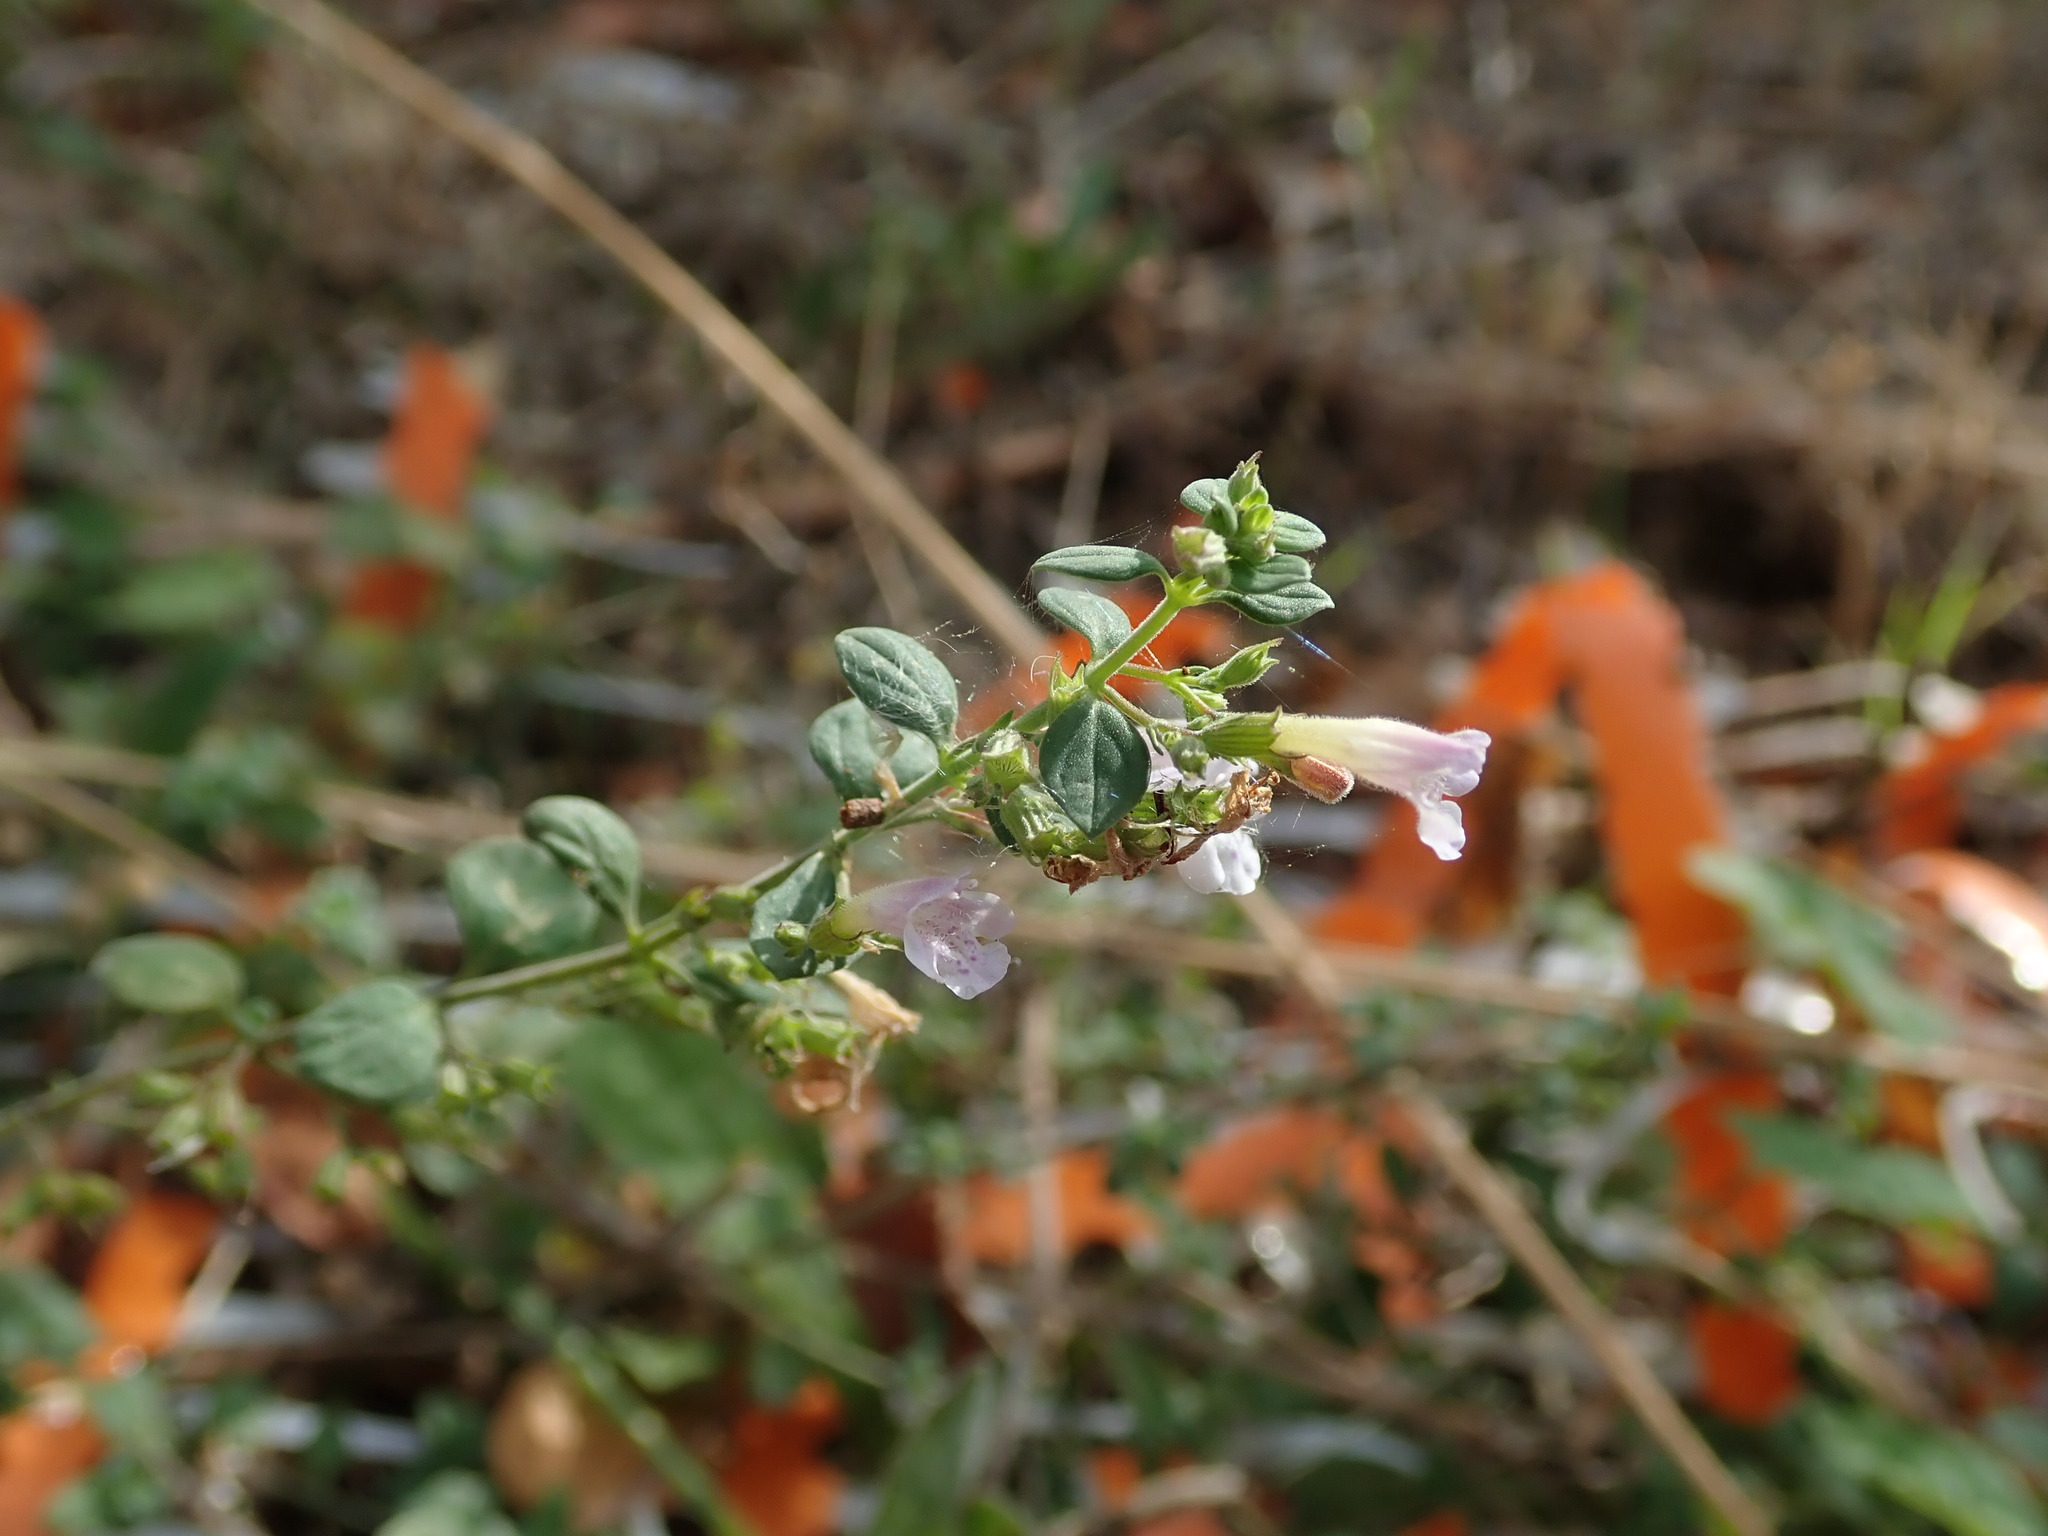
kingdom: Plantae
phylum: Tracheophyta
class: Magnoliopsida
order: Lamiales
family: Lamiaceae
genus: Clinopodium
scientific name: Clinopodium nepeta
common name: Lesser calamint
